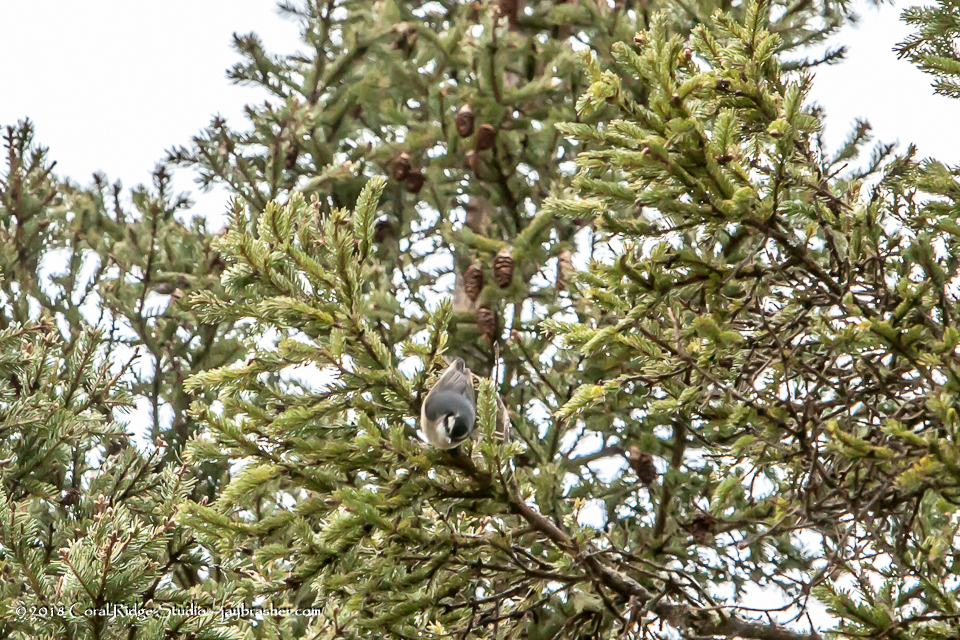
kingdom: Animalia
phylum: Chordata
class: Aves
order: Passeriformes
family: Sittidae
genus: Sitta
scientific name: Sitta canadensis
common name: Red-breasted nuthatch
